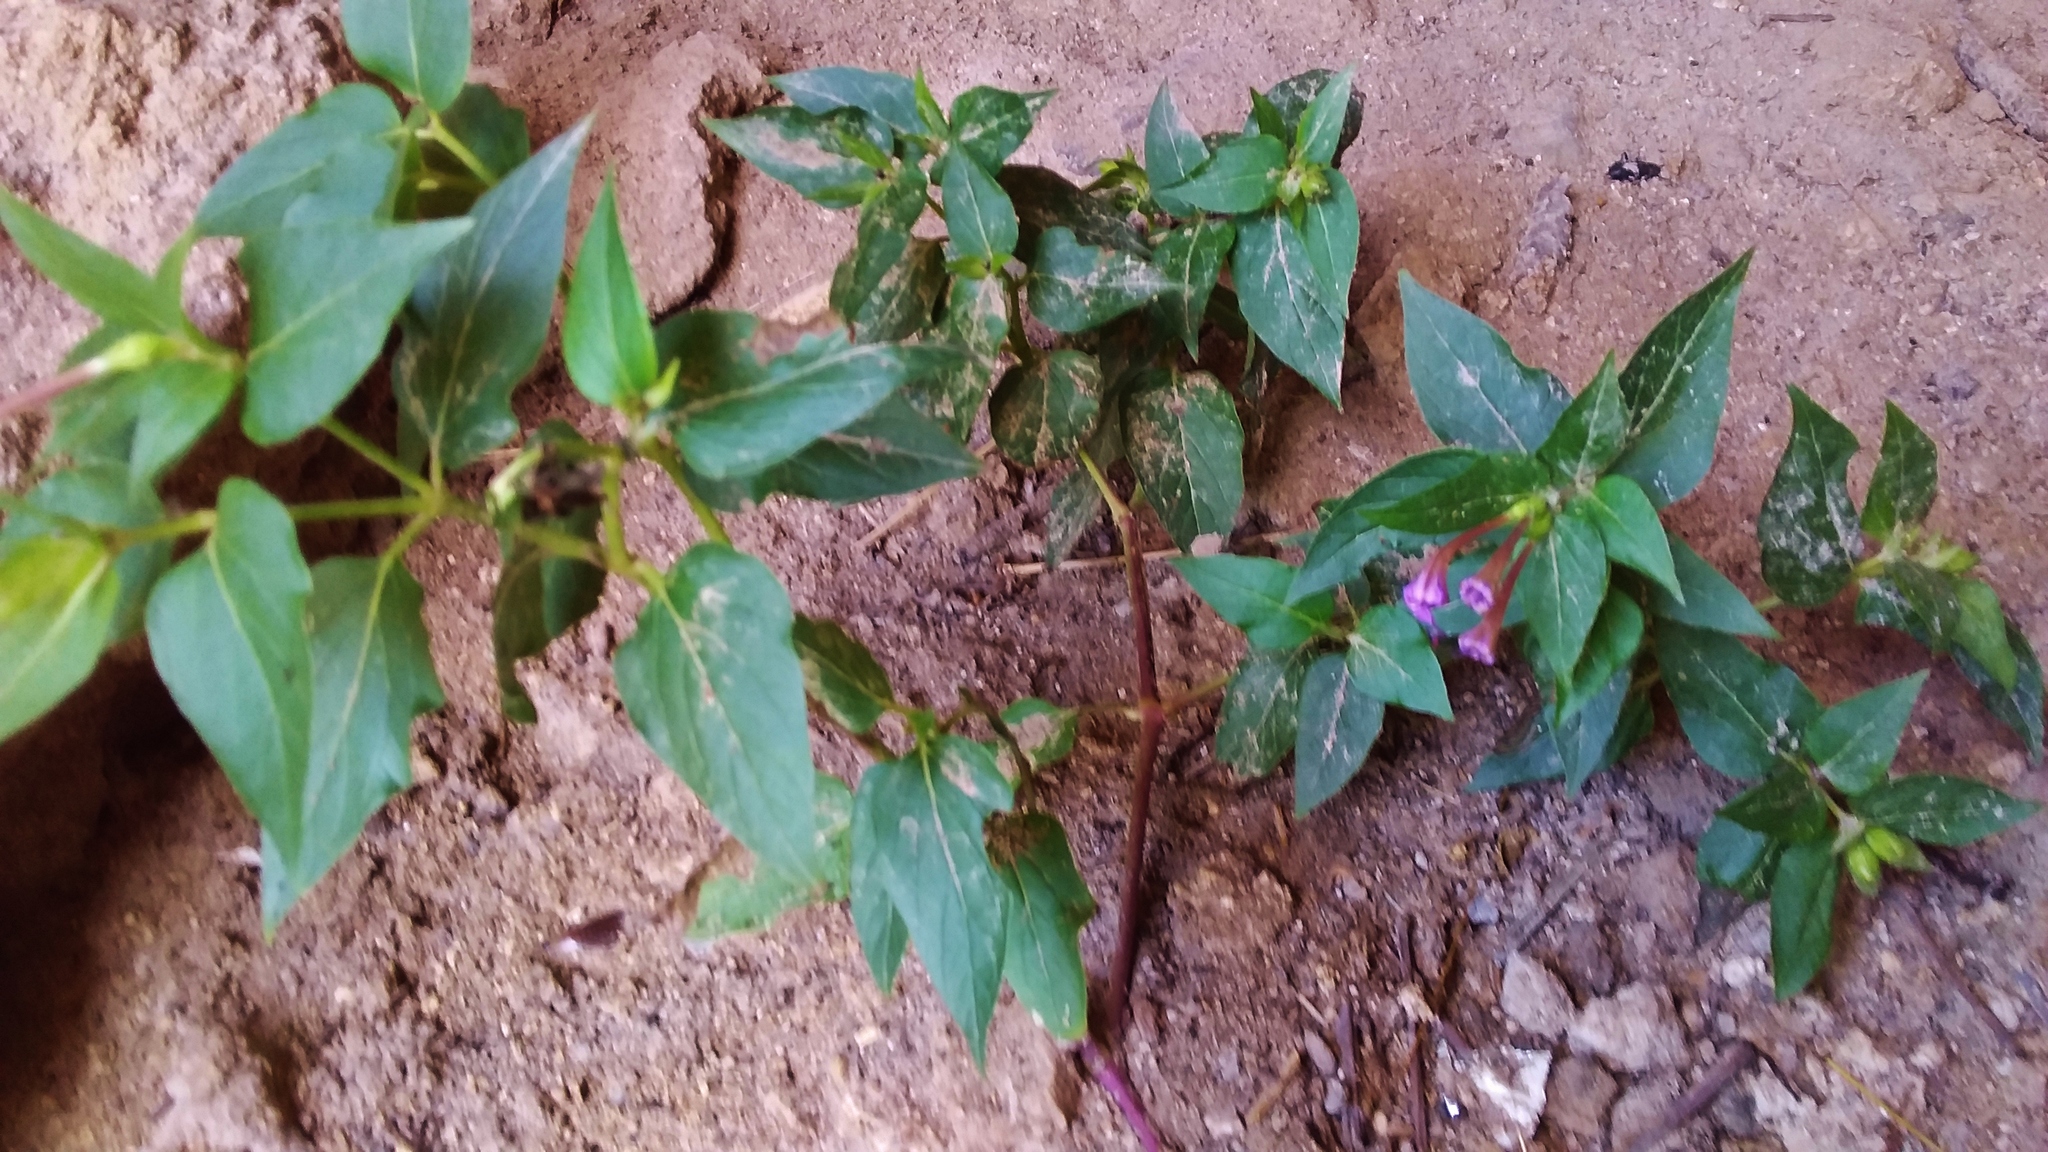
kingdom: Plantae
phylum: Tracheophyta
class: Magnoliopsida
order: Caryophyllales
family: Nyctaginaceae
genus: Mirabilis
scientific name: Mirabilis jalapa
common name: Marvel-of-peru
